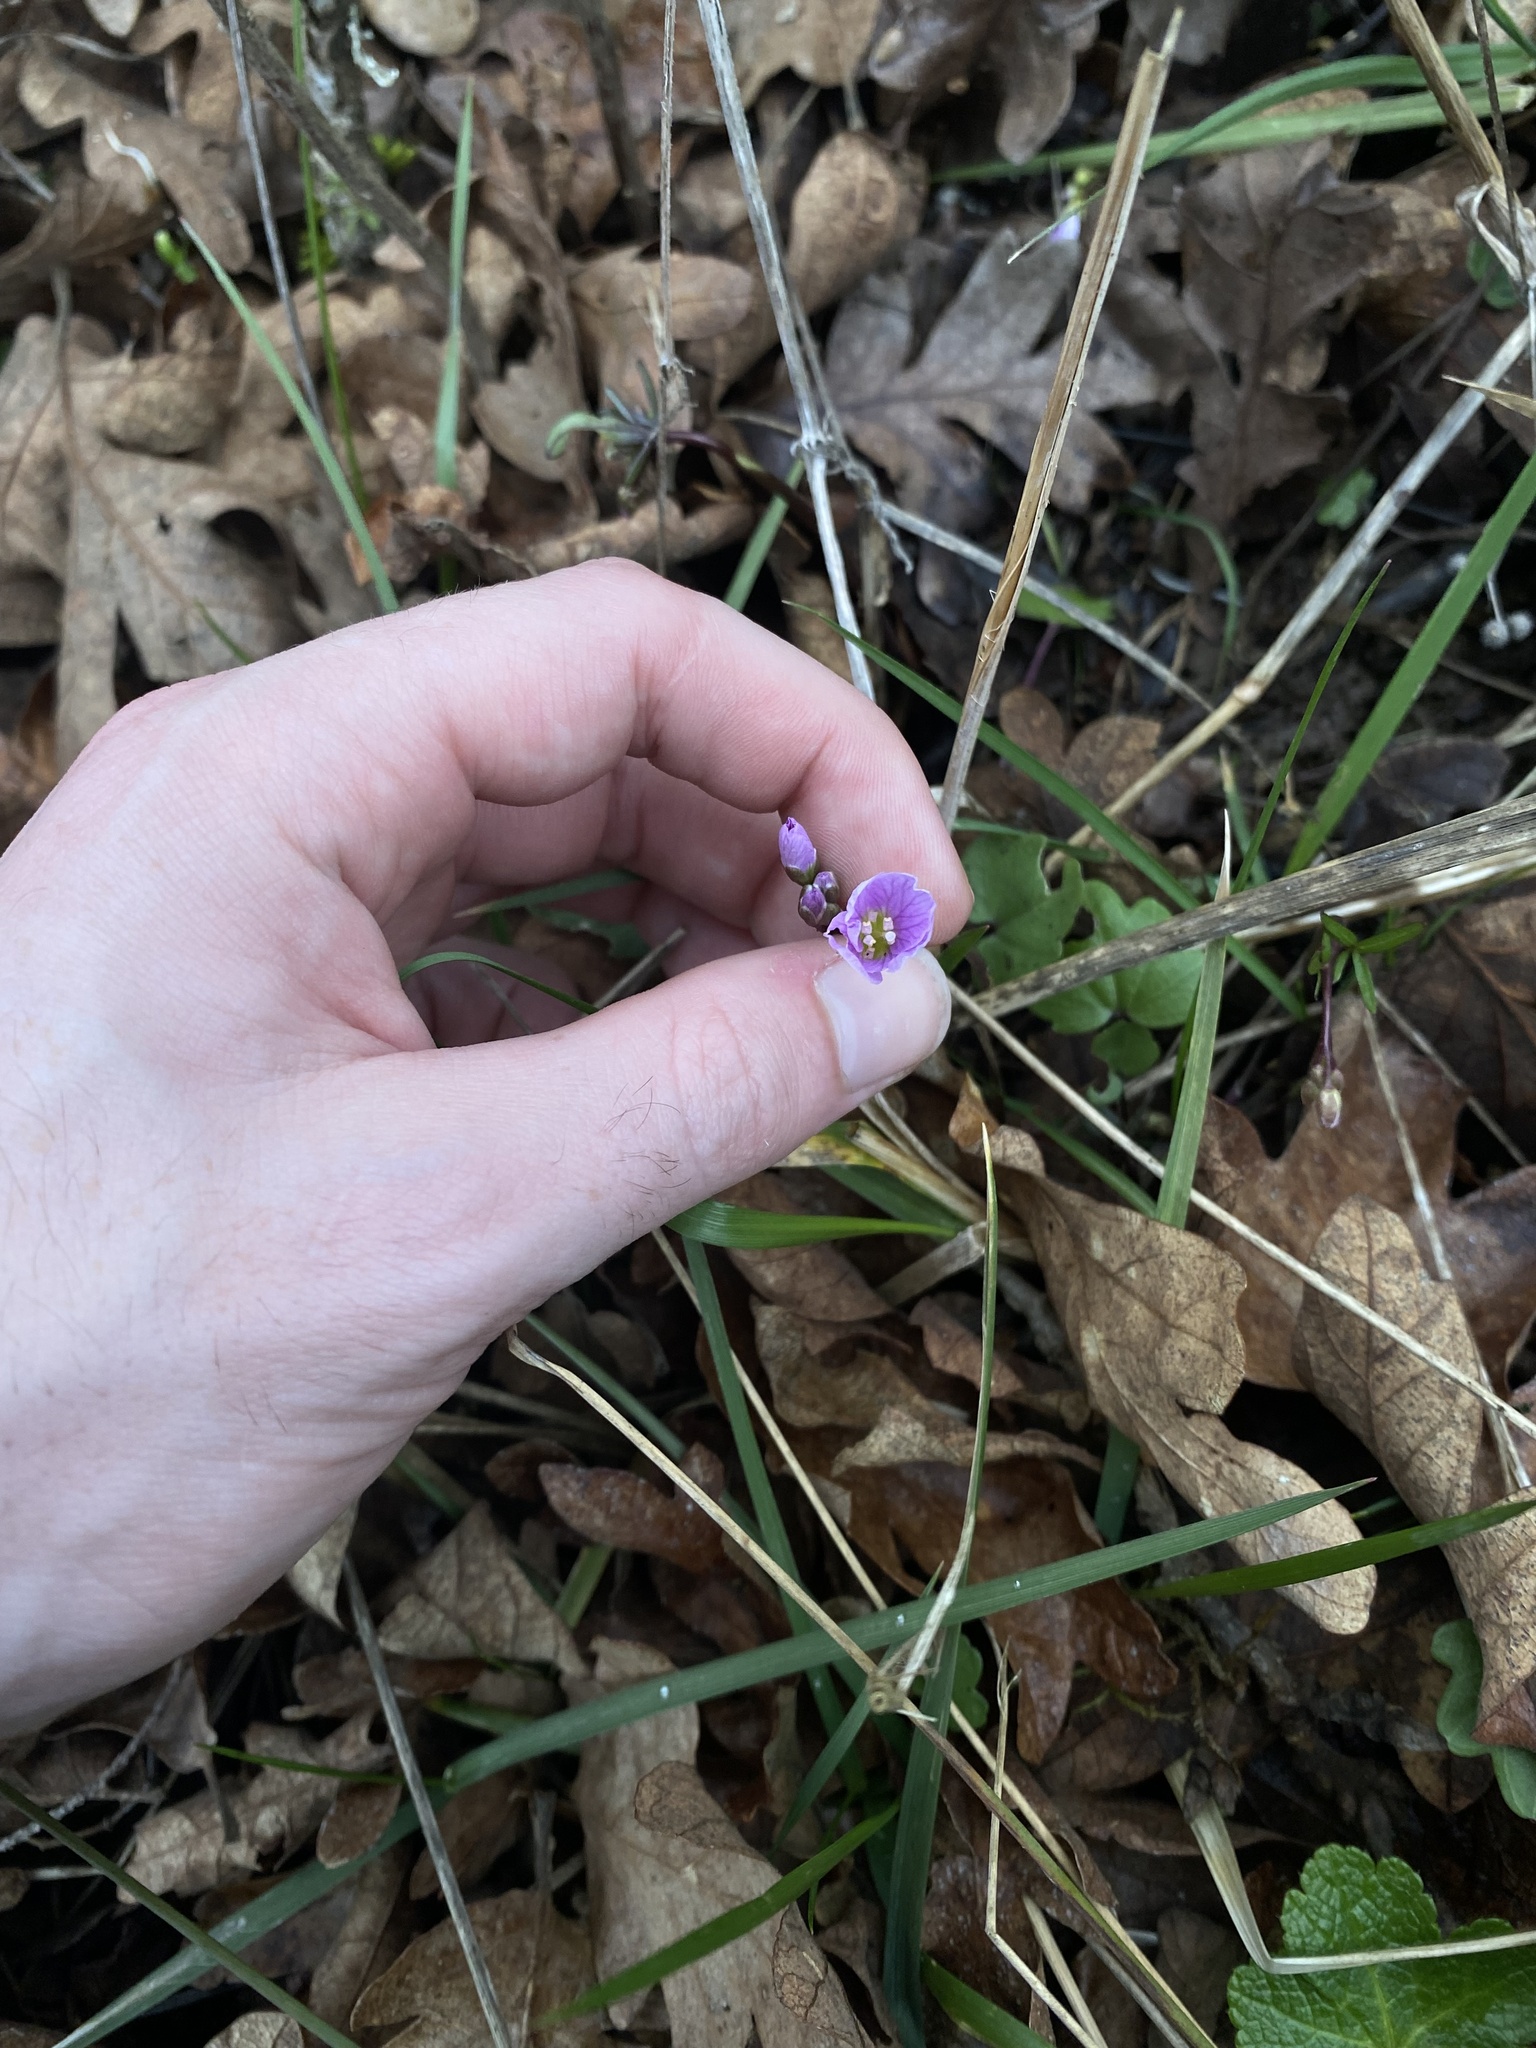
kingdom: Plantae
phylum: Tracheophyta
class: Magnoliopsida
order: Brassicales
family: Brassicaceae
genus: Cardamine
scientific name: Cardamine nuttallii
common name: Nuttall's toothwort
